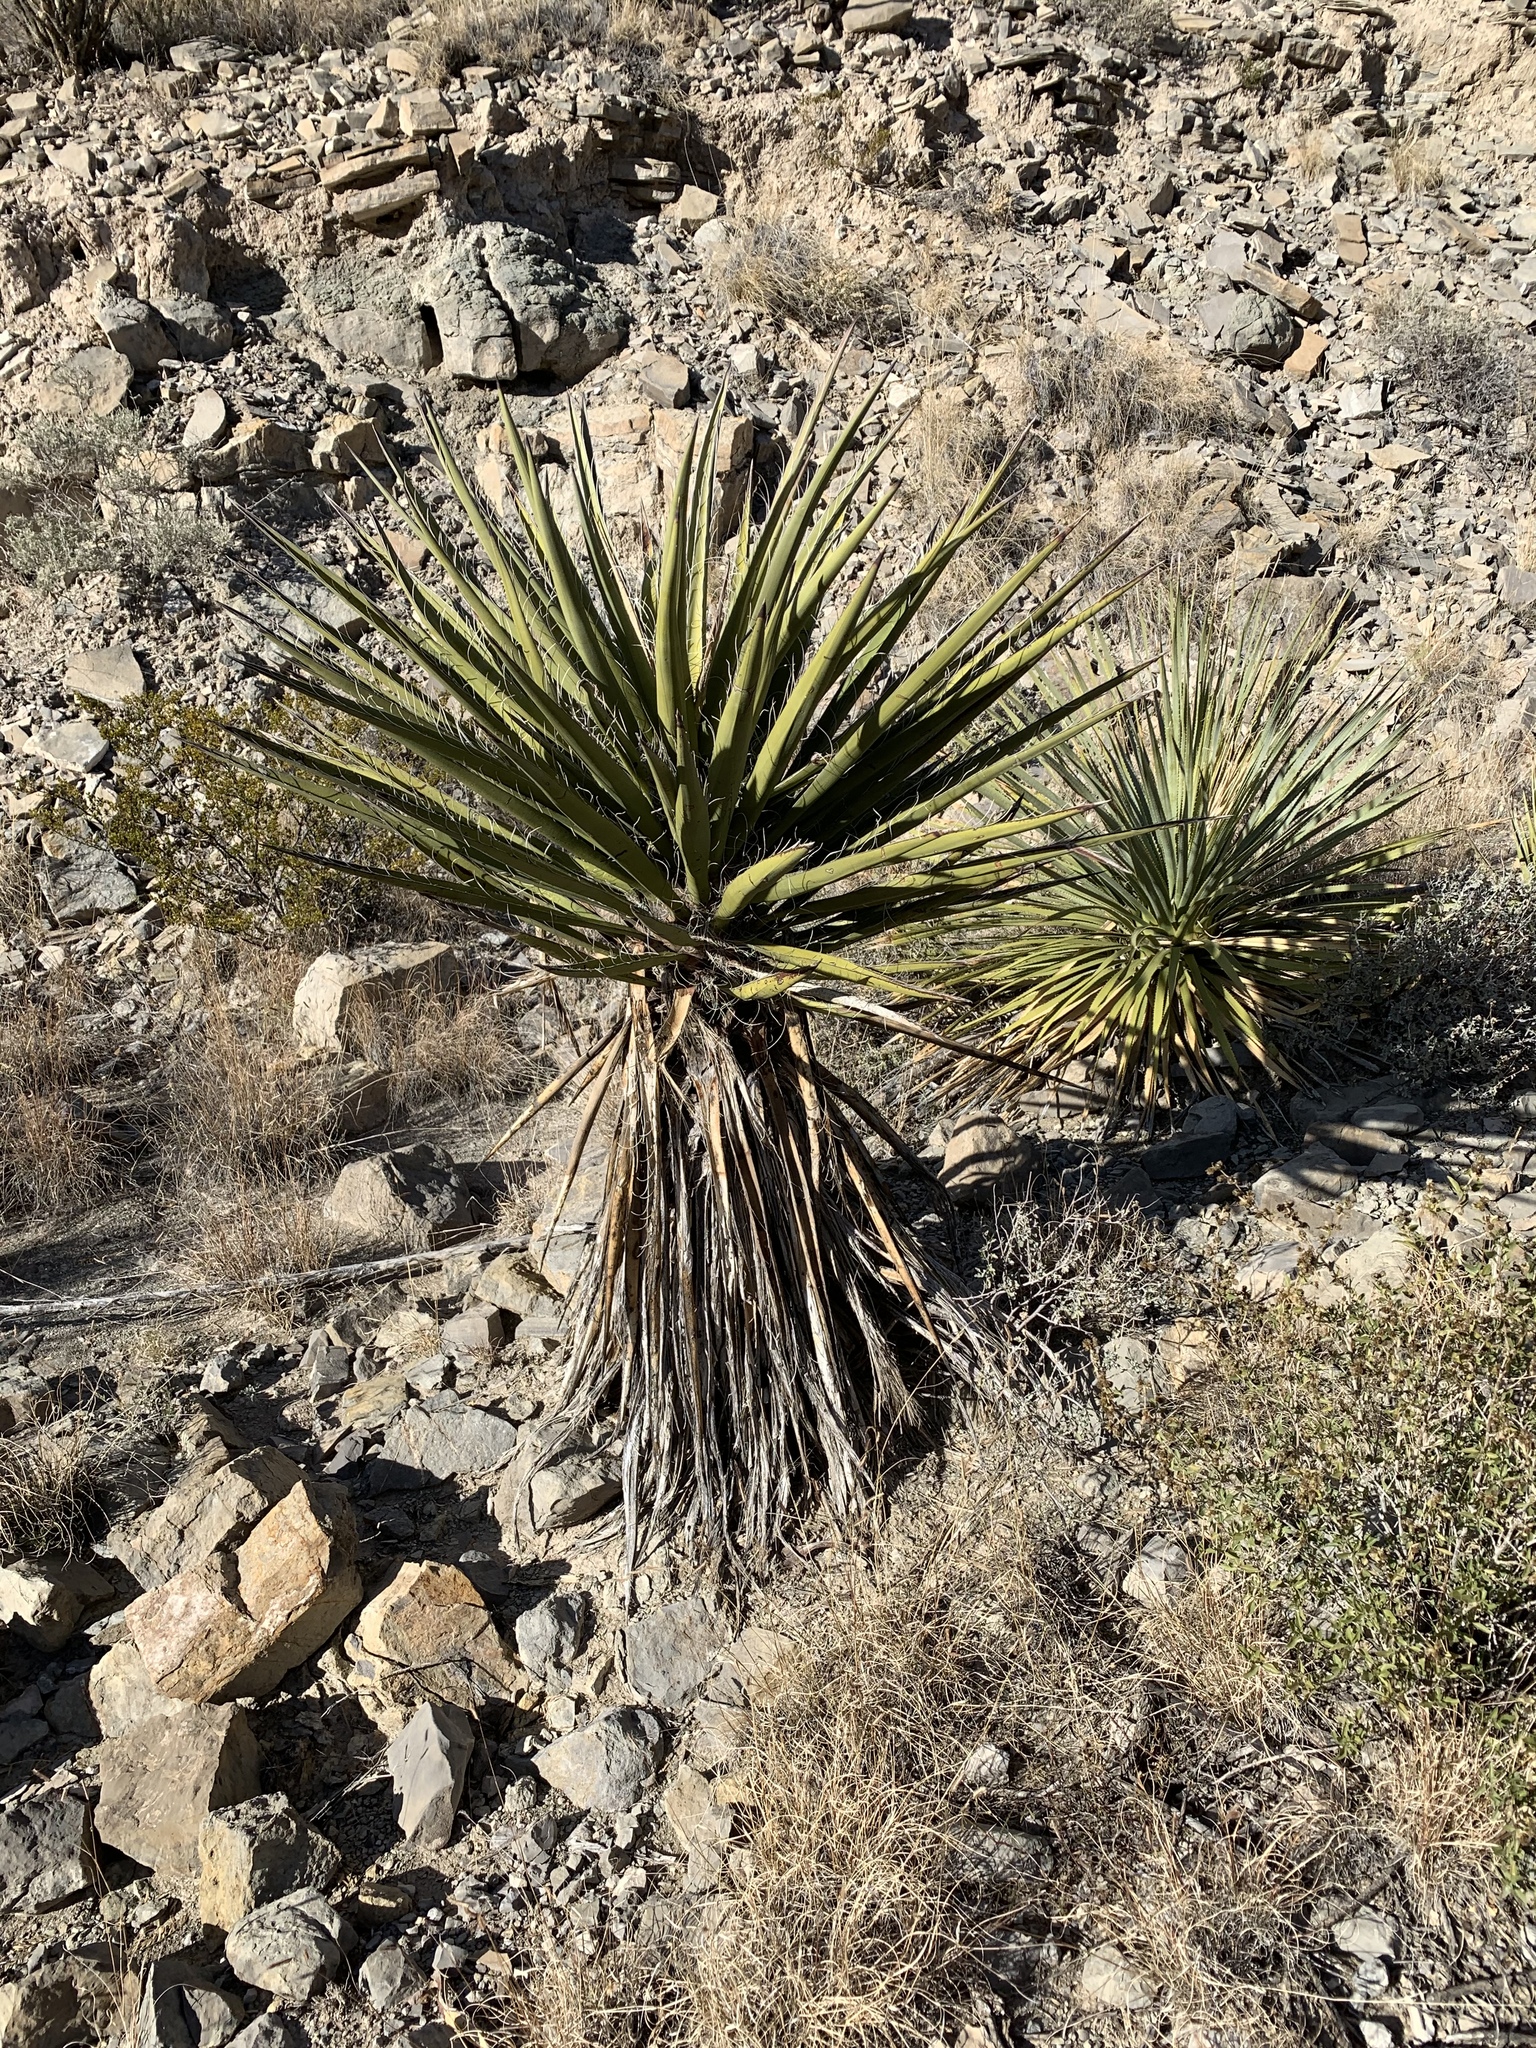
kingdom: Plantae
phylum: Tracheophyta
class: Liliopsida
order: Asparagales
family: Asparagaceae
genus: Yucca
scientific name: Yucca treculiana
